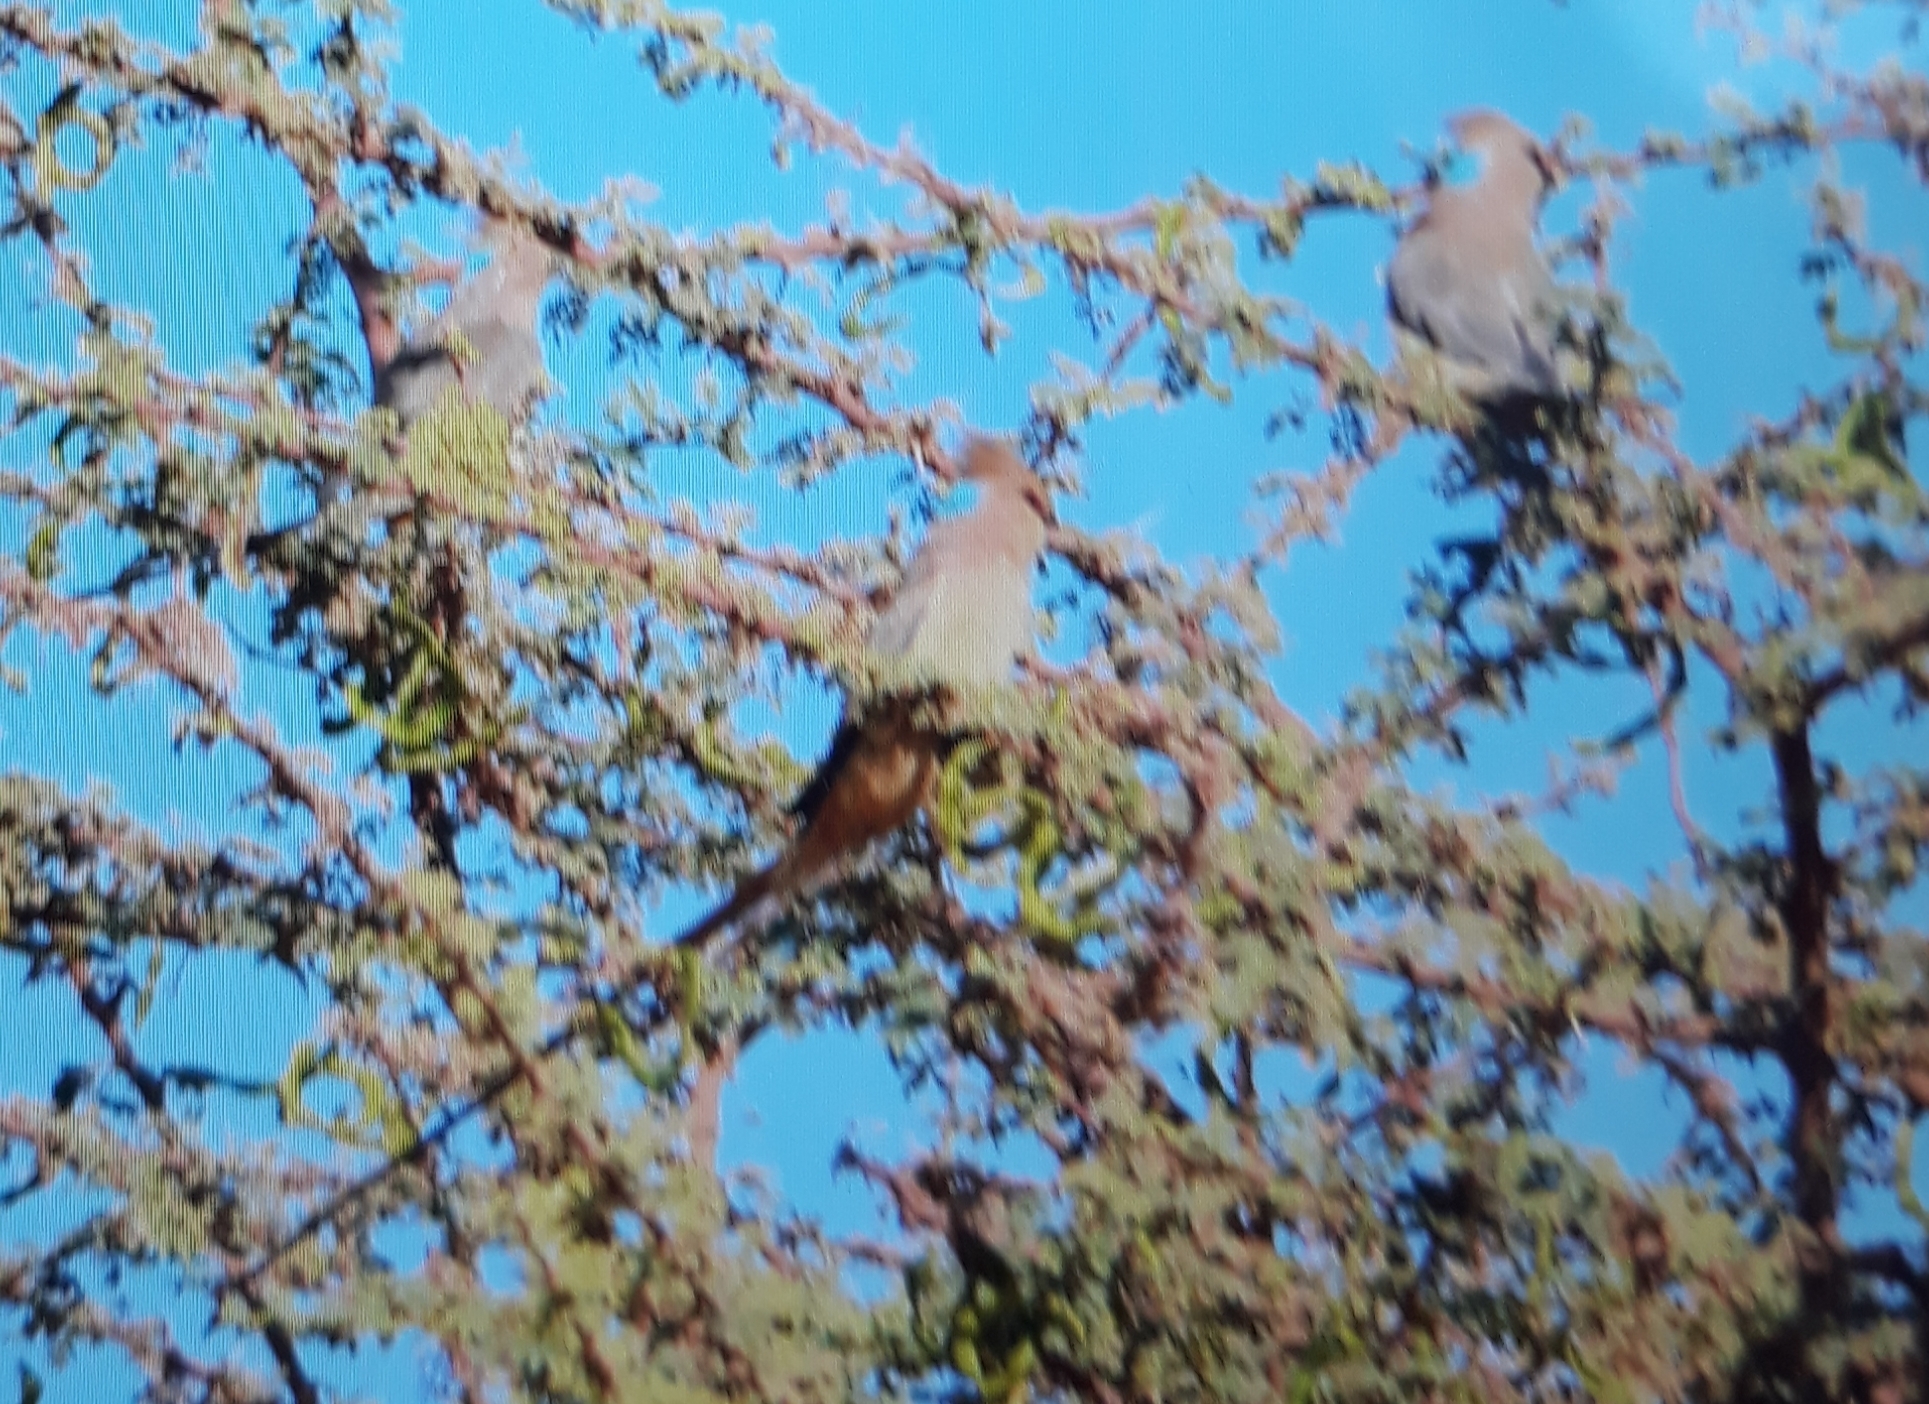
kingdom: Animalia
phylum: Chordata
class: Aves
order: Coliiformes
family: Coliidae
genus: Urocolius
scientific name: Urocolius macrourus
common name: Blue-naped mousebird
